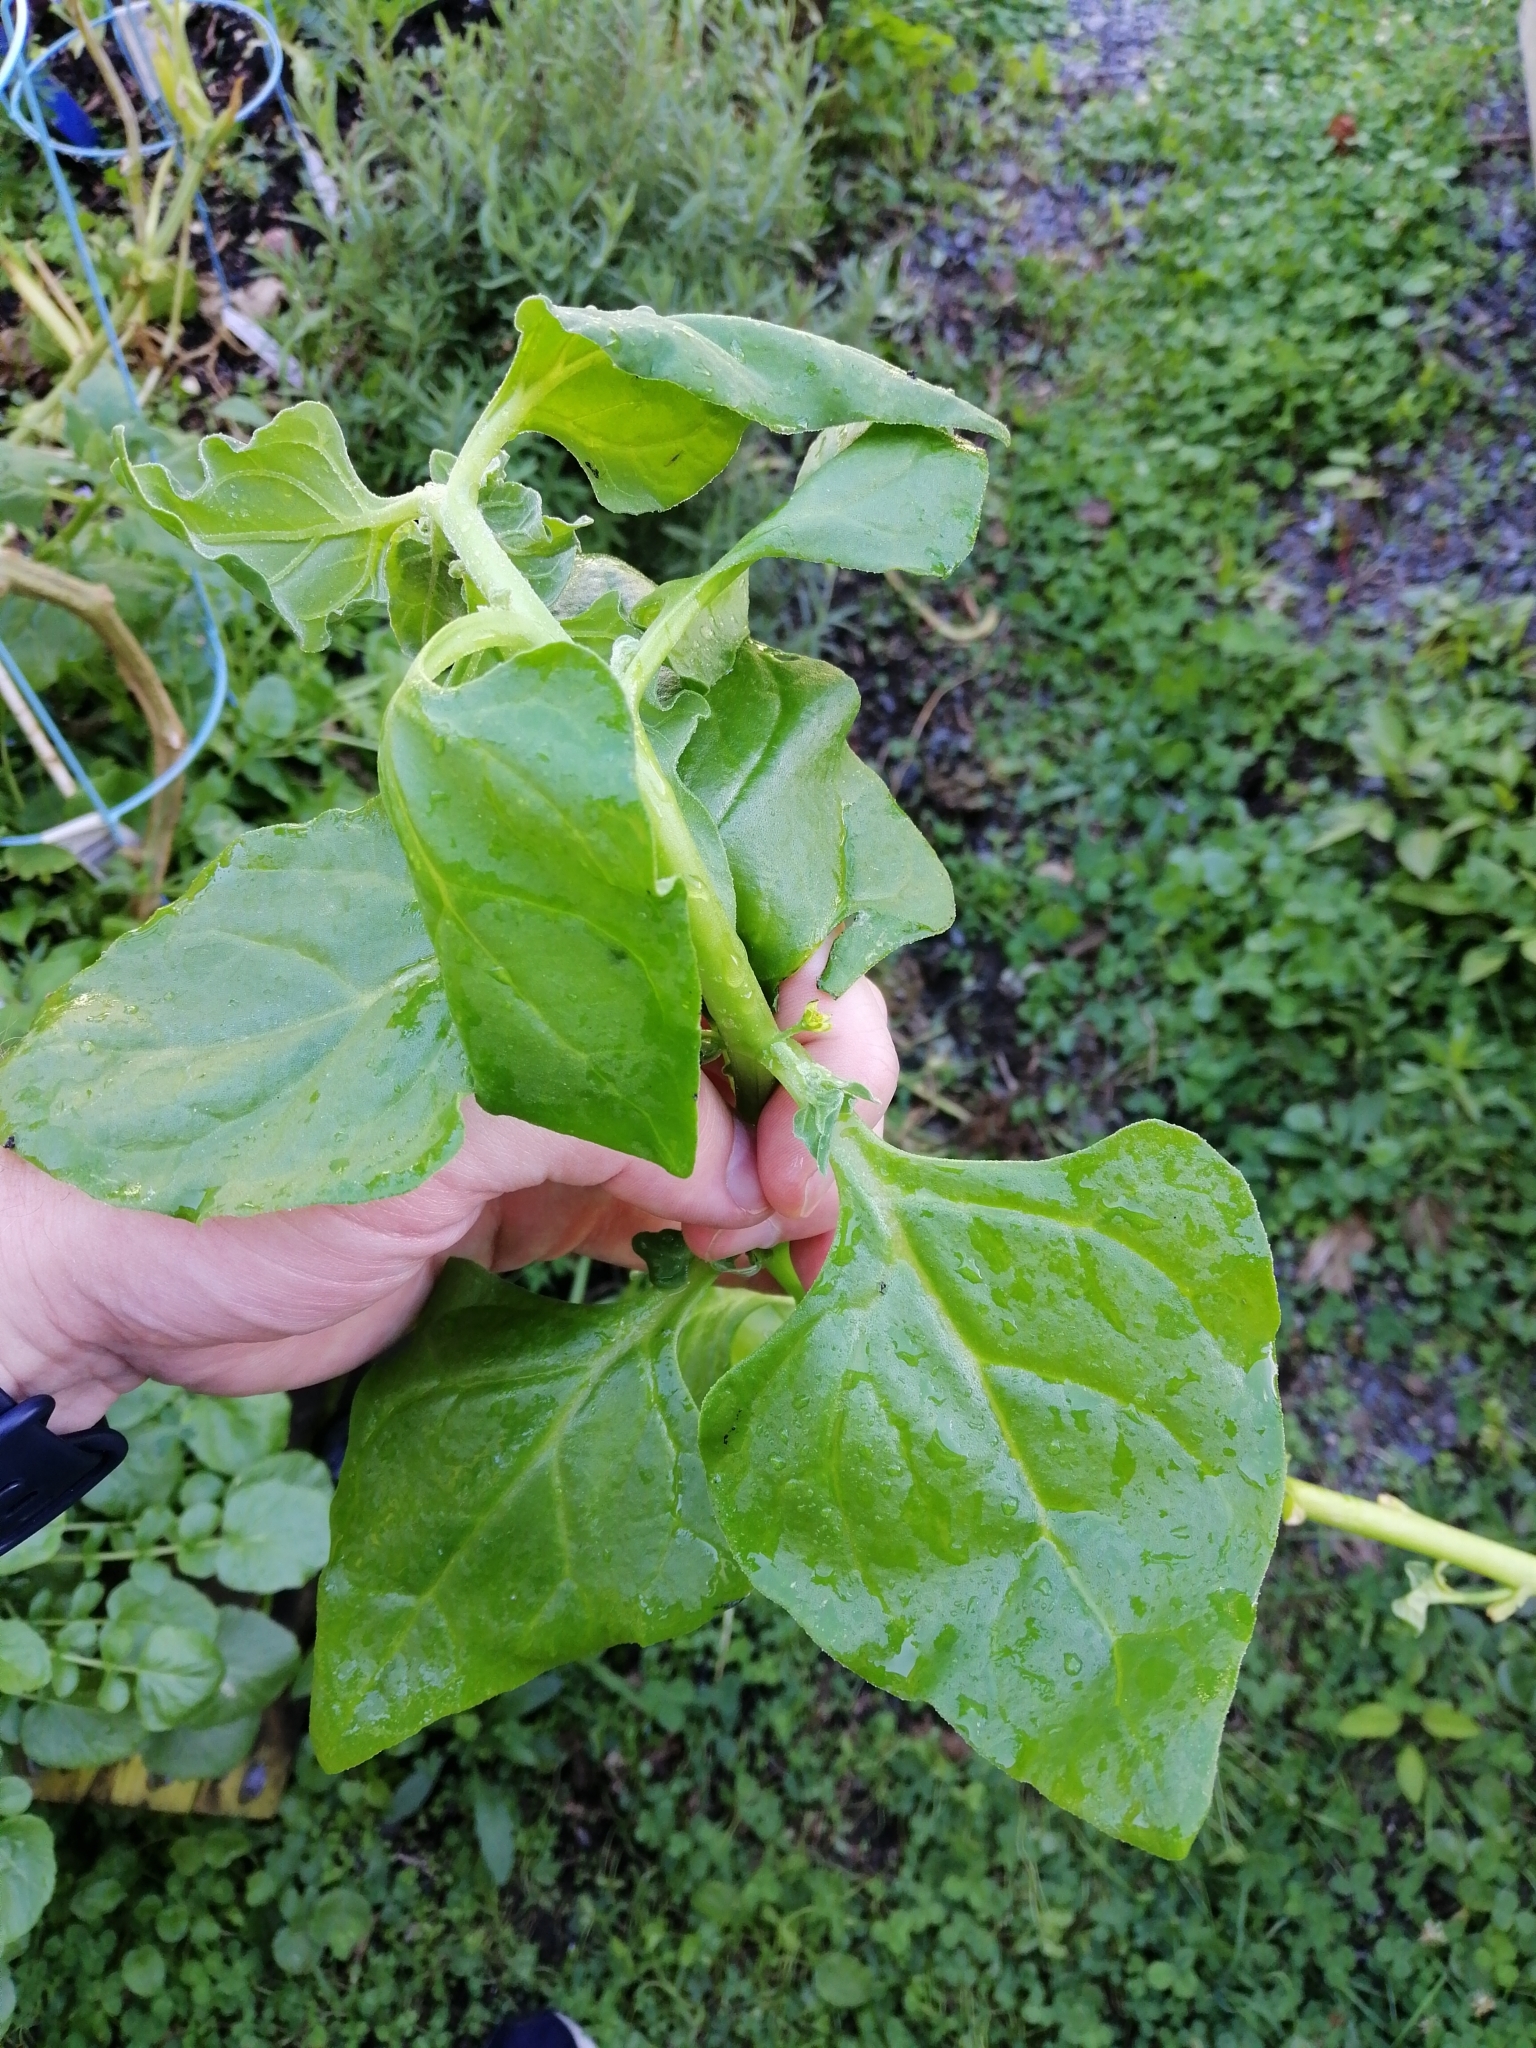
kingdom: Plantae
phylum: Tracheophyta
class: Magnoliopsida
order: Caryophyllales
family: Aizoaceae
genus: Tetragonia
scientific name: Tetragonia tetragonoides
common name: New zealand-spinach
